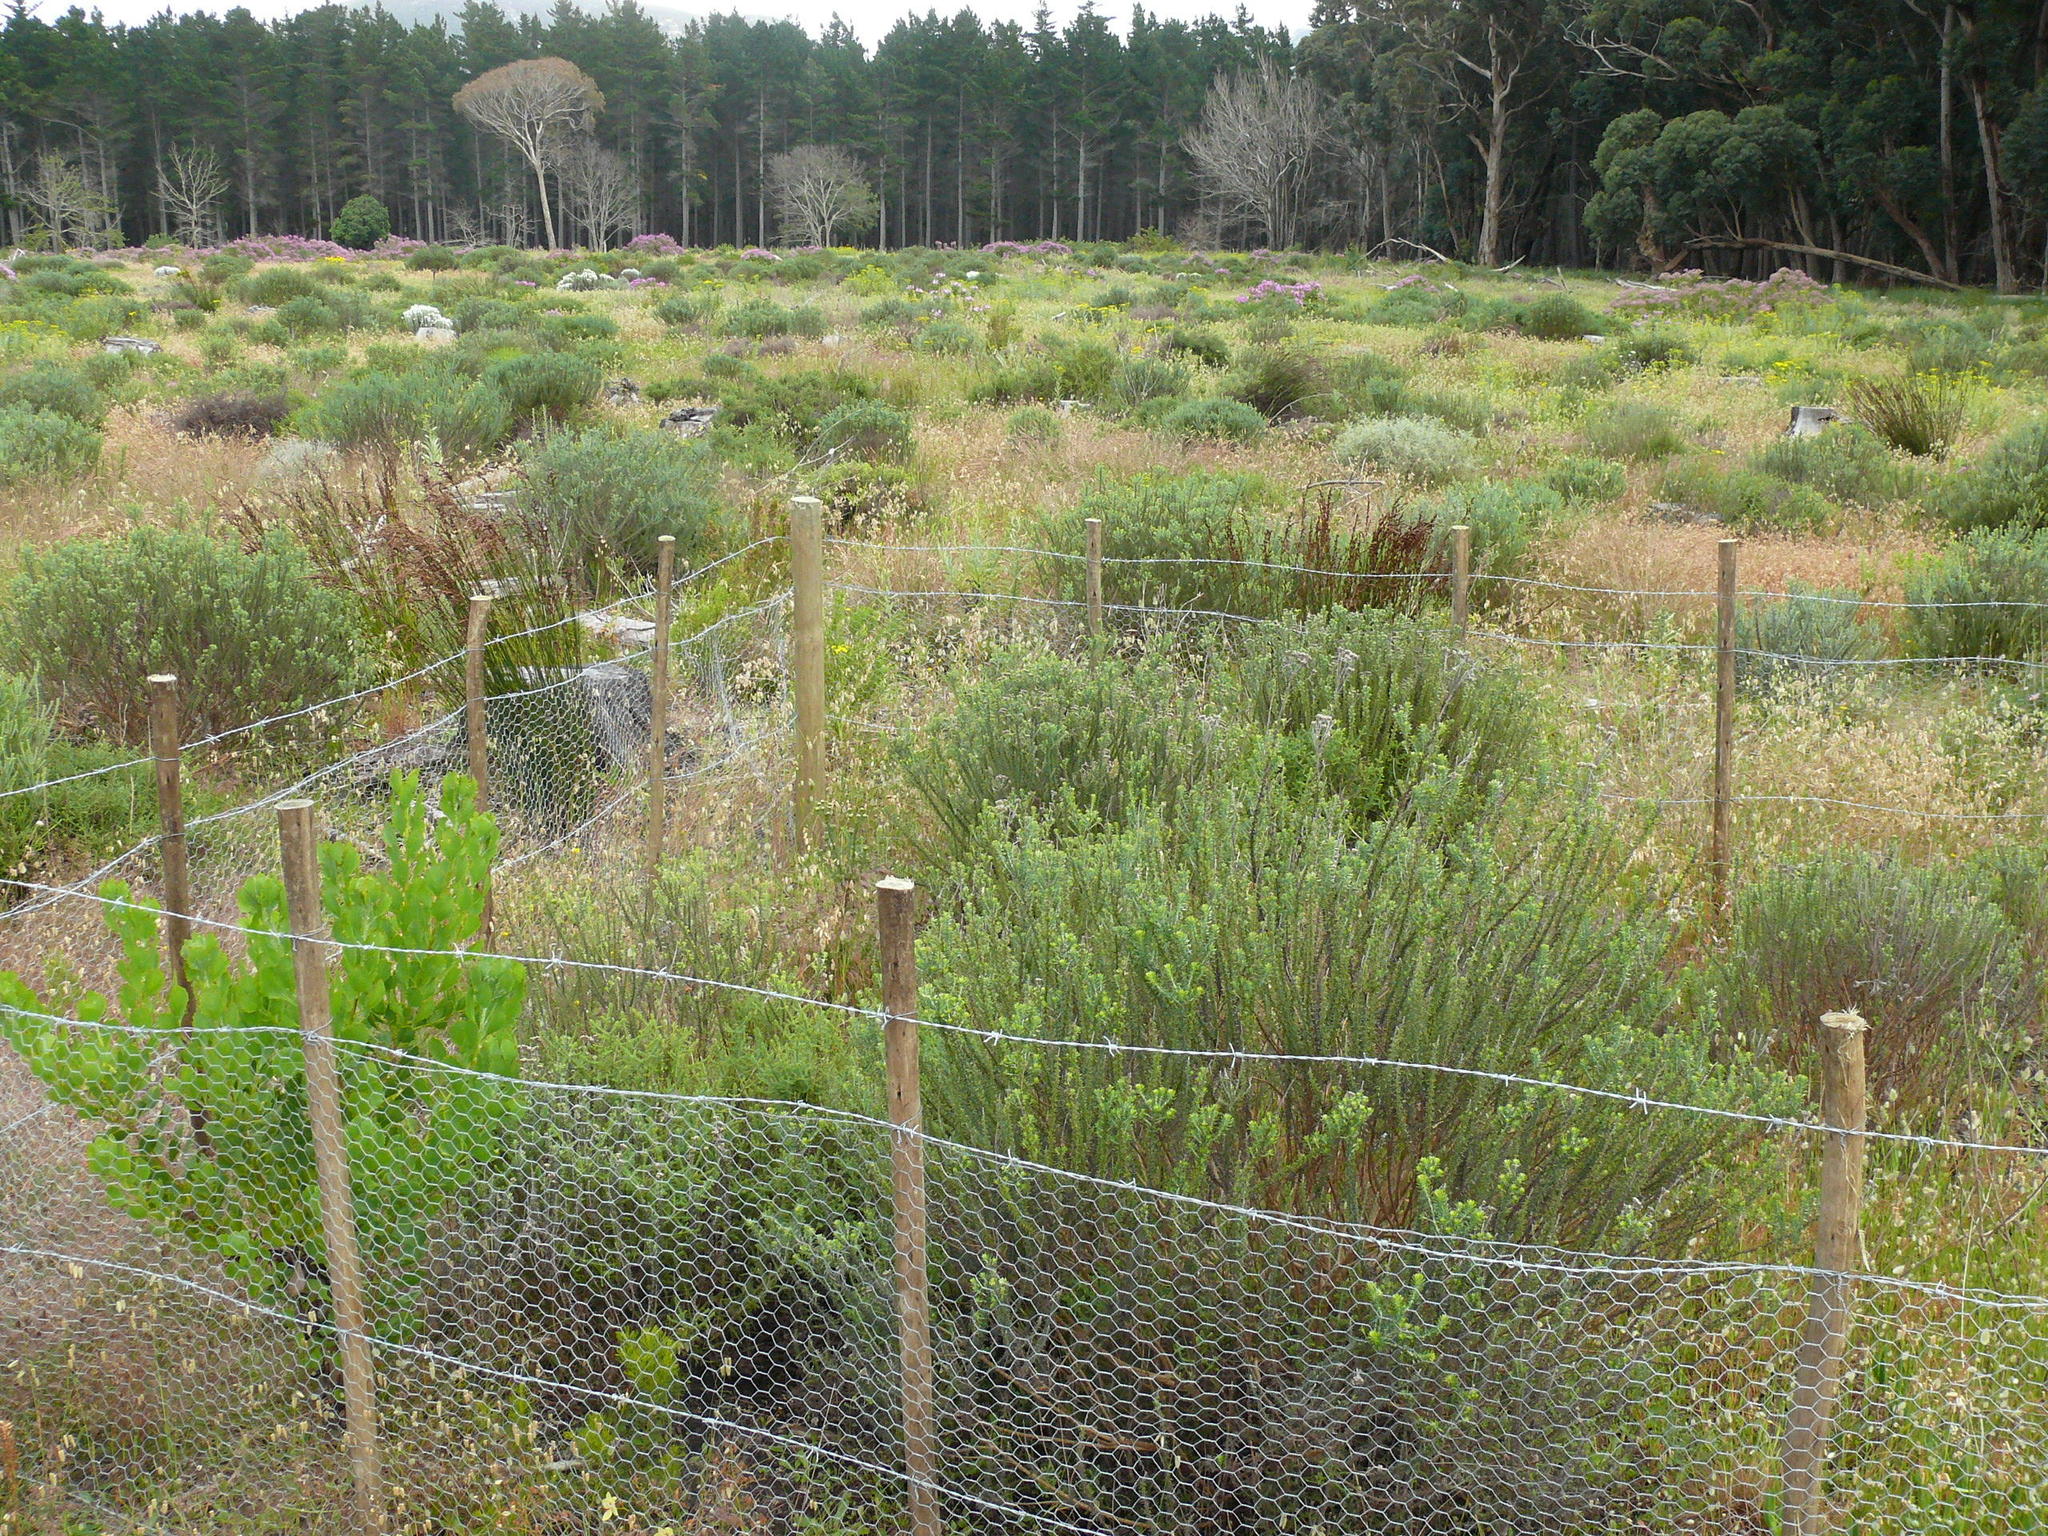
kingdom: Plantae
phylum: Tracheophyta
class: Magnoliopsida
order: Asterales
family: Asteraceae
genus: Metalasia
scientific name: Metalasia densa
